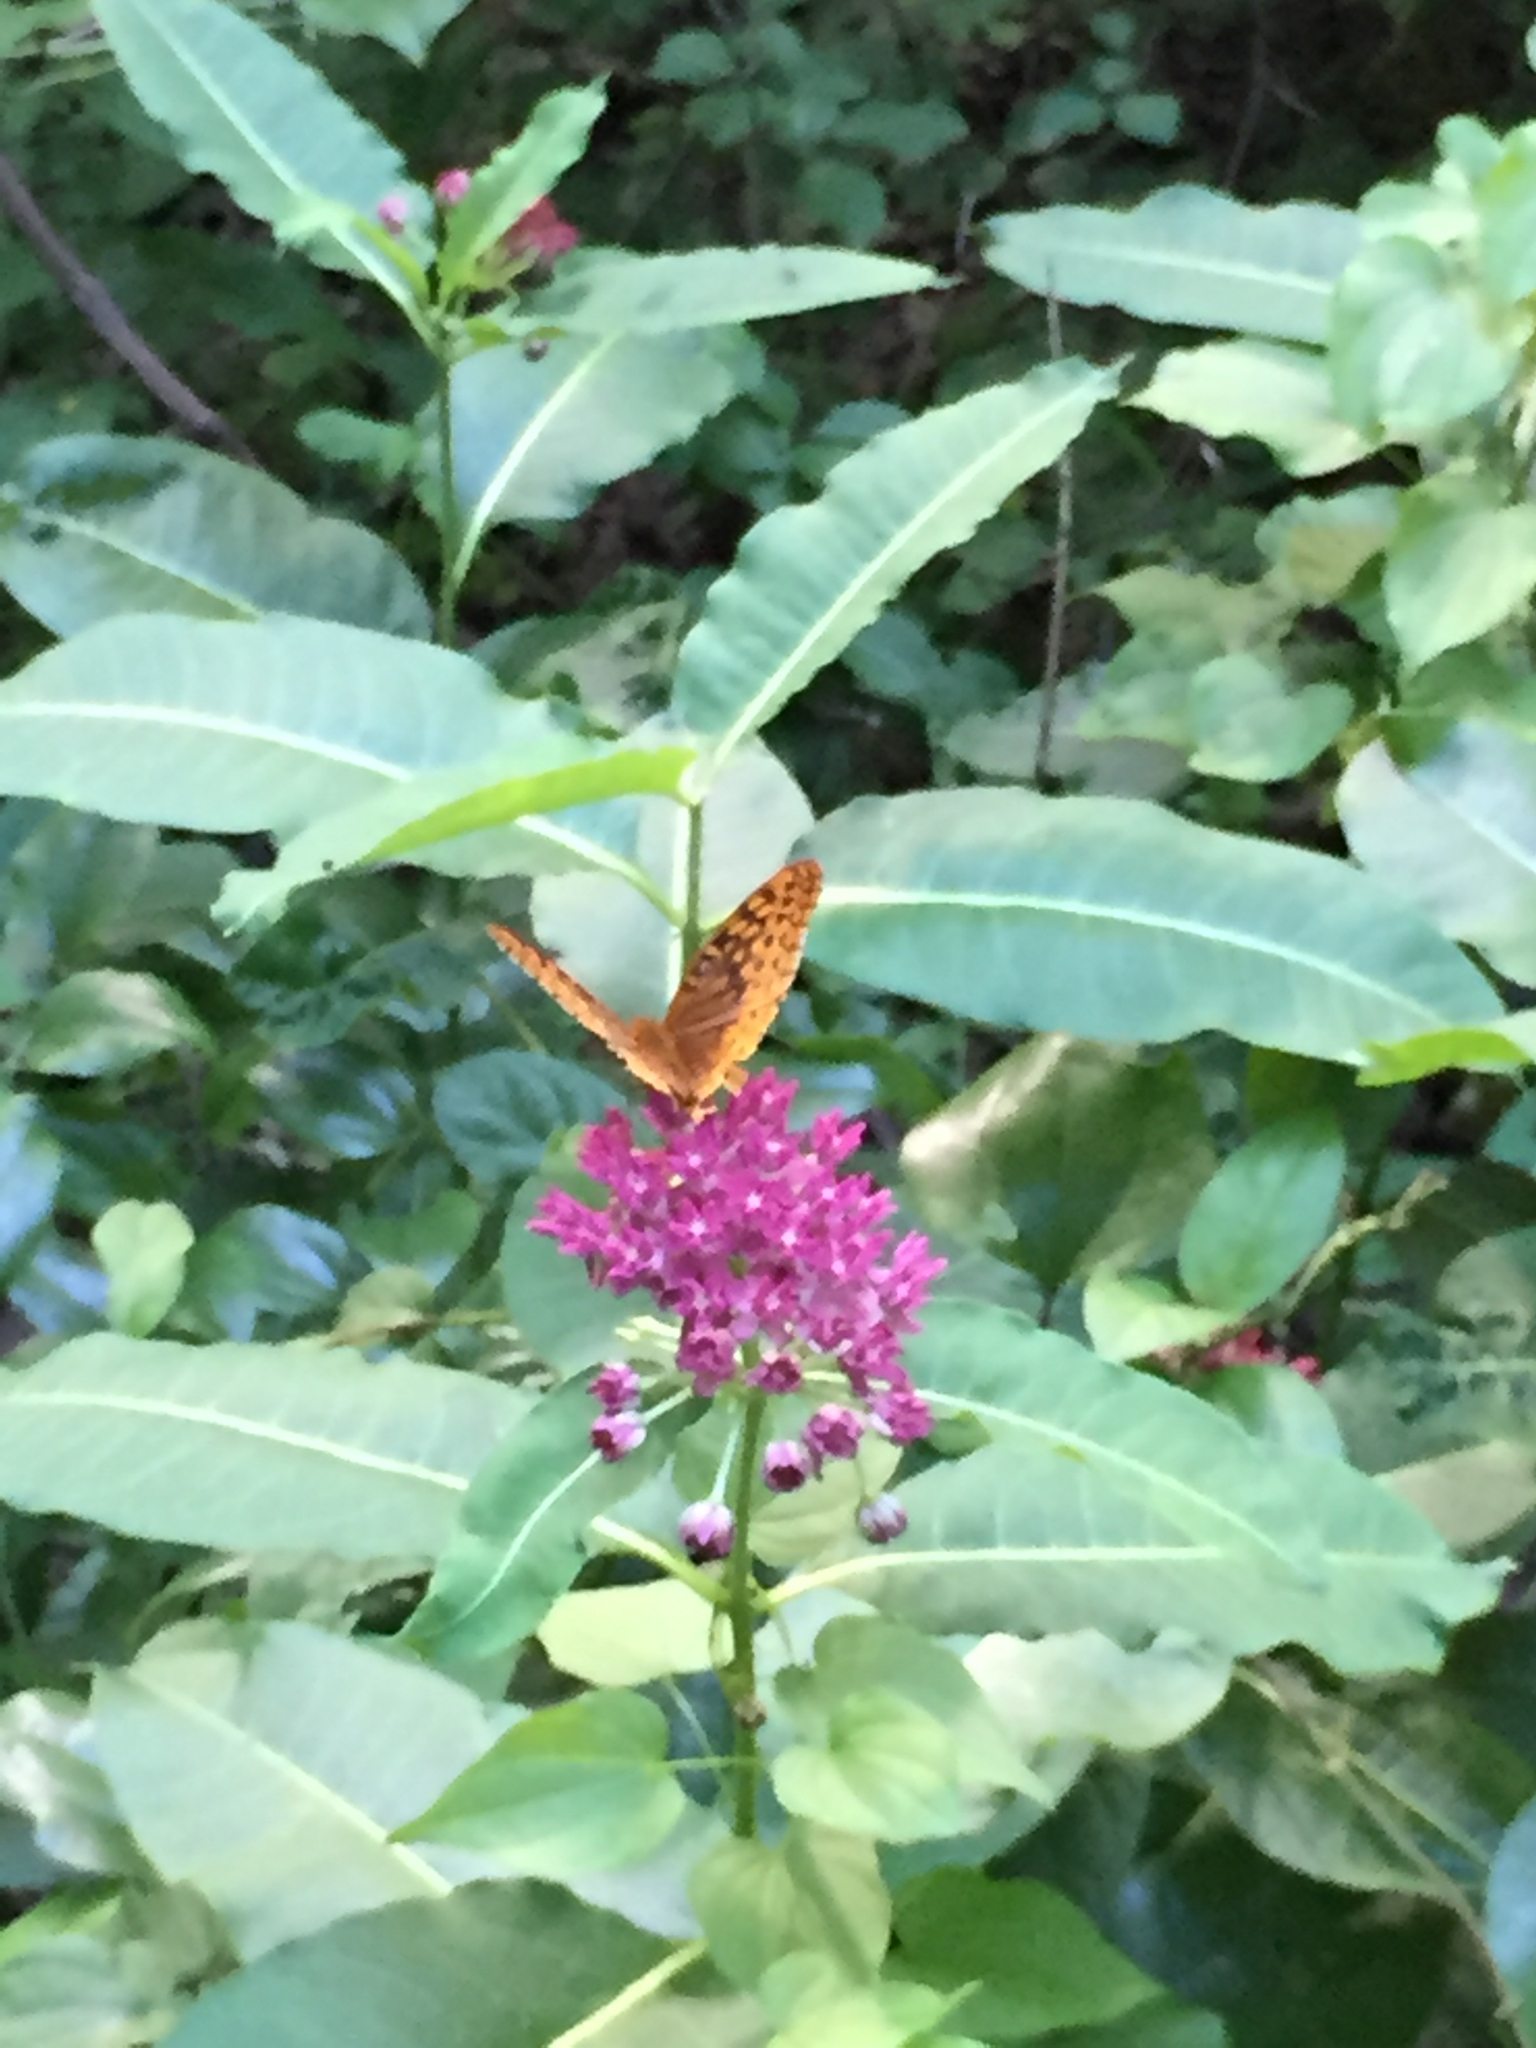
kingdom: Animalia
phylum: Arthropoda
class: Insecta
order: Lepidoptera
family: Nymphalidae
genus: Speyeria
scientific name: Speyeria cybele
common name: Great spangled fritillary
